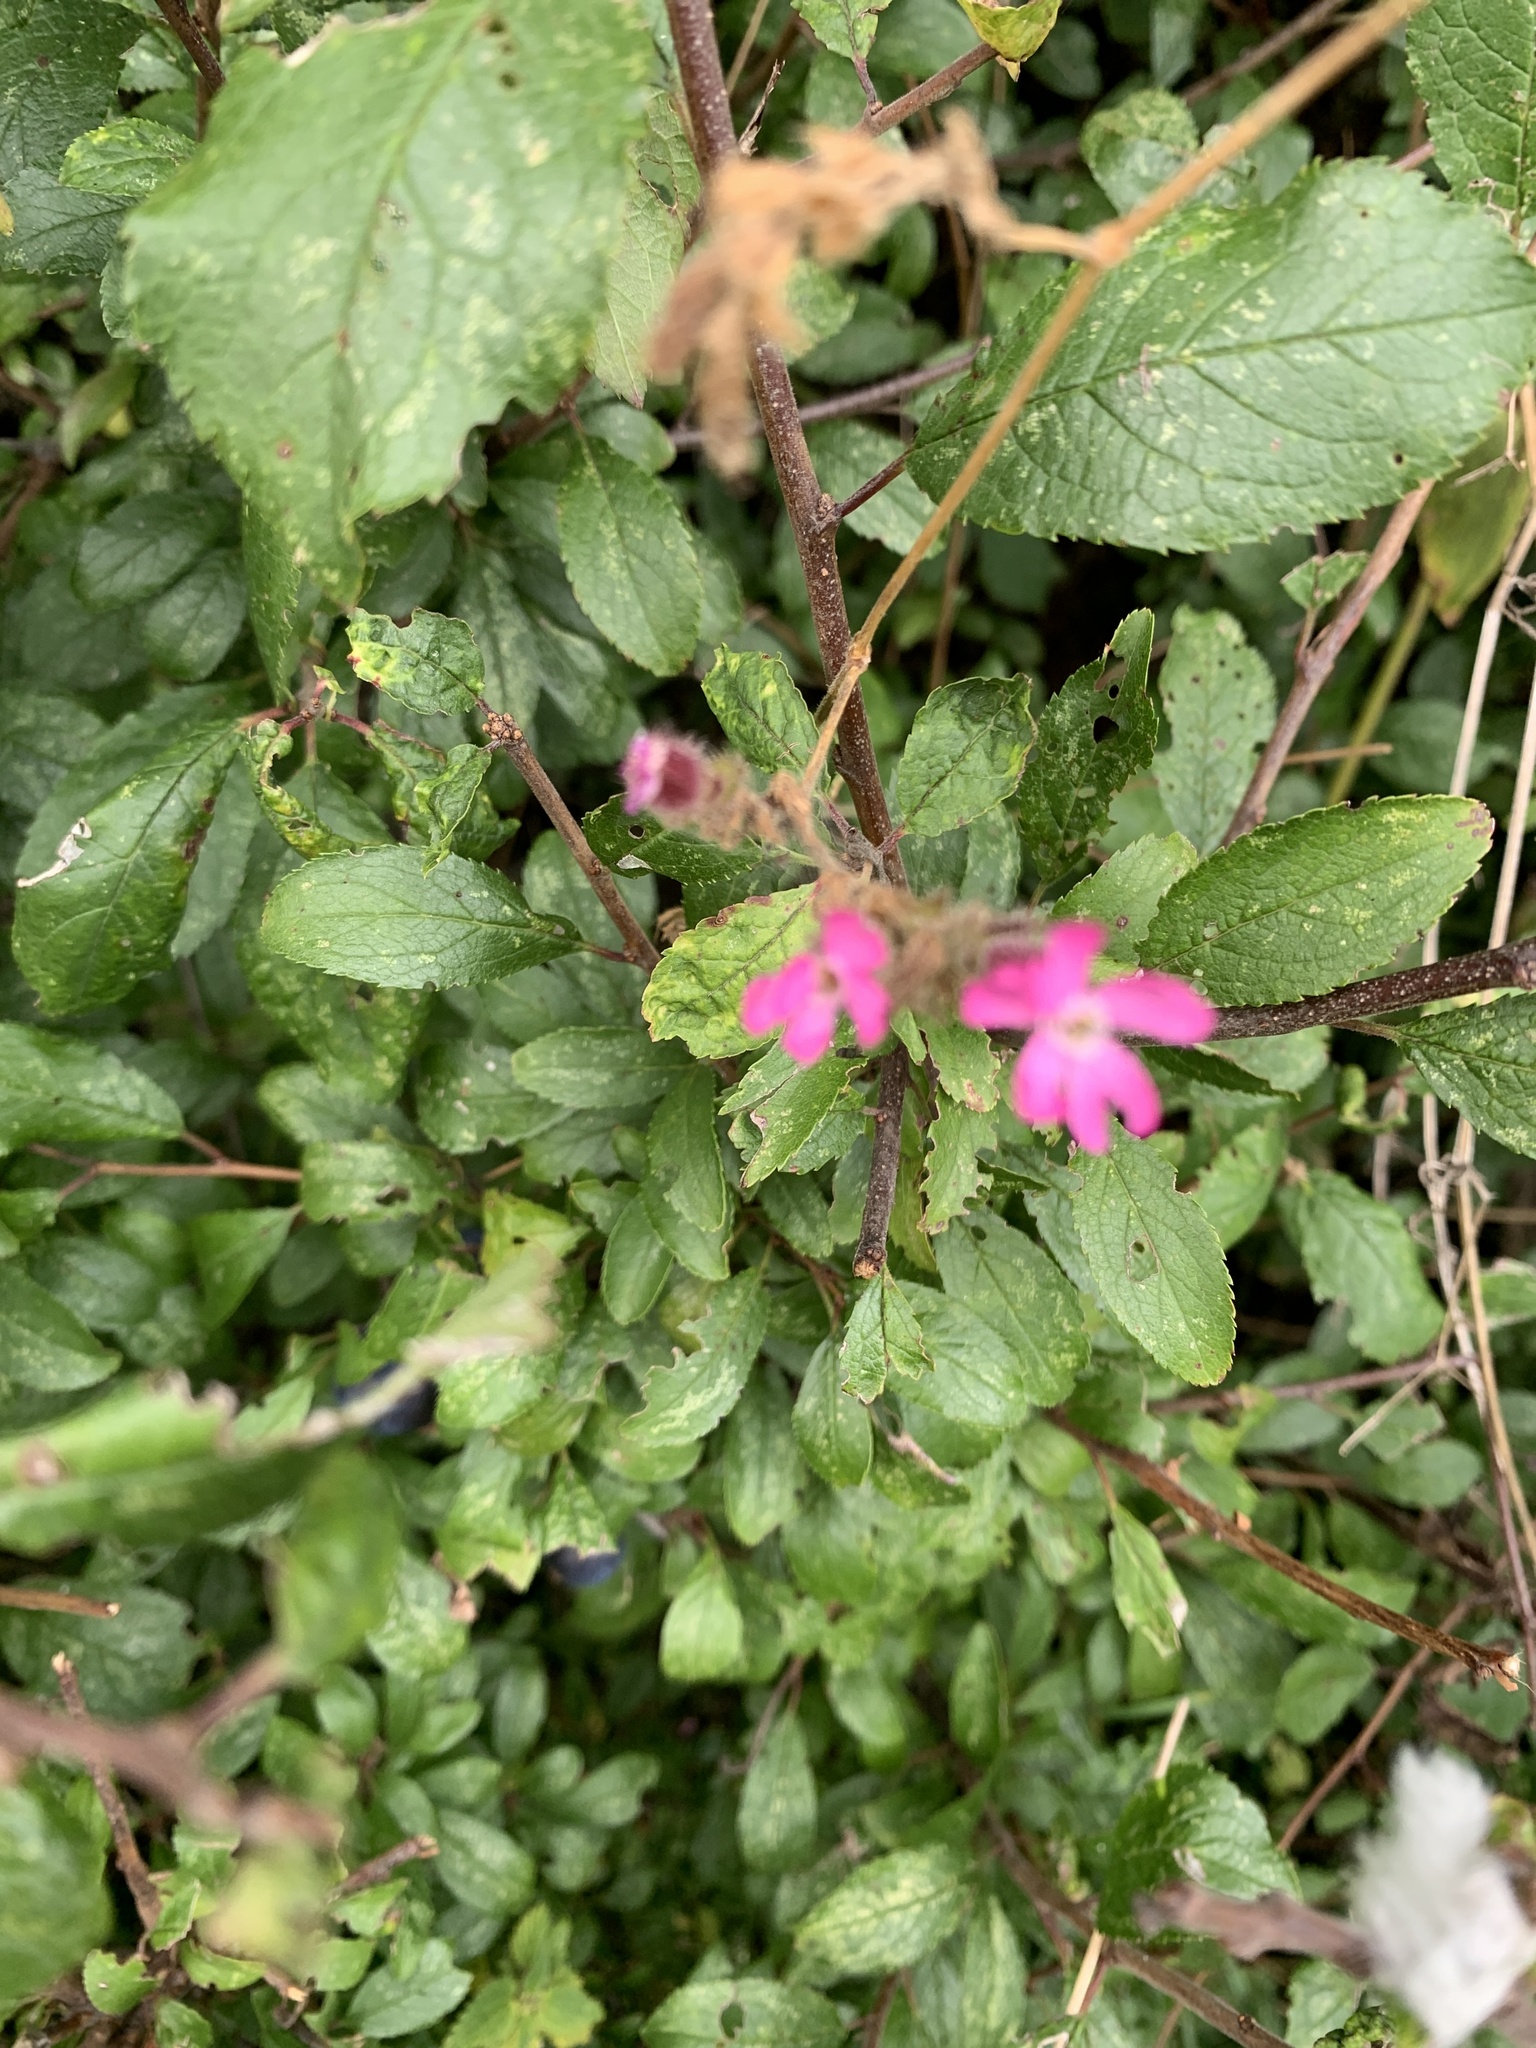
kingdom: Plantae
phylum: Tracheophyta
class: Magnoliopsida
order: Caryophyllales
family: Caryophyllaceae
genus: Silene
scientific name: Silene dioica
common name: Red campion
